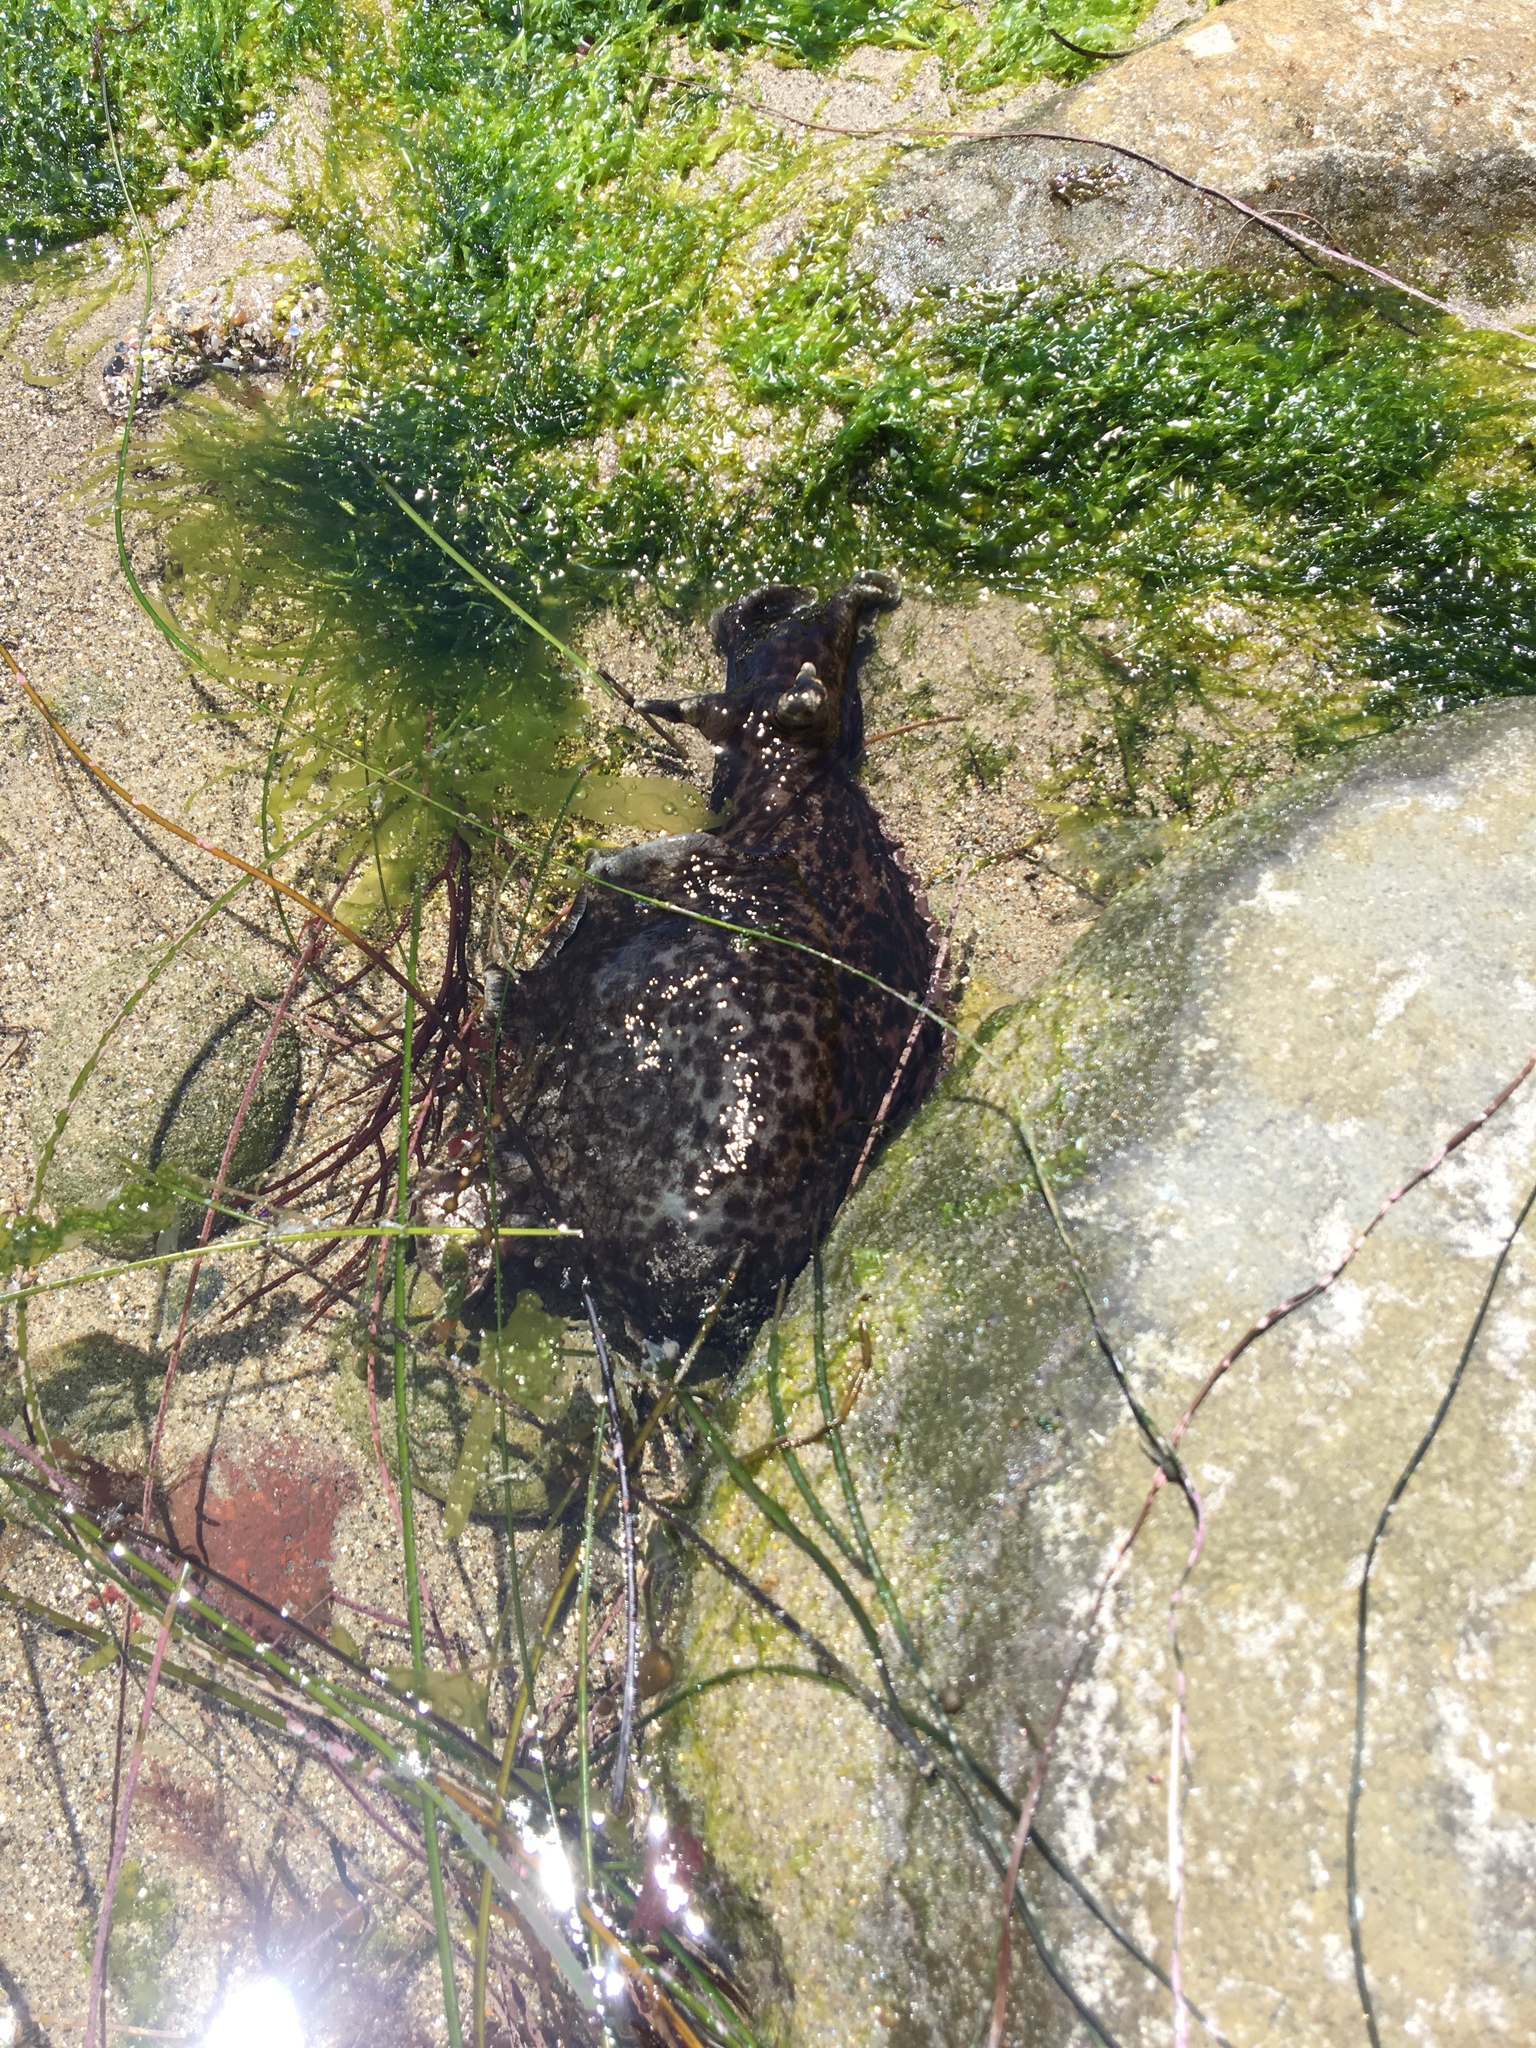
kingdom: Animalia
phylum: Mollusca
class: Gastropoda
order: Aplysiida
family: Aplysiidae
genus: Aplysia
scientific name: Aplysia californica
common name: California seahare
